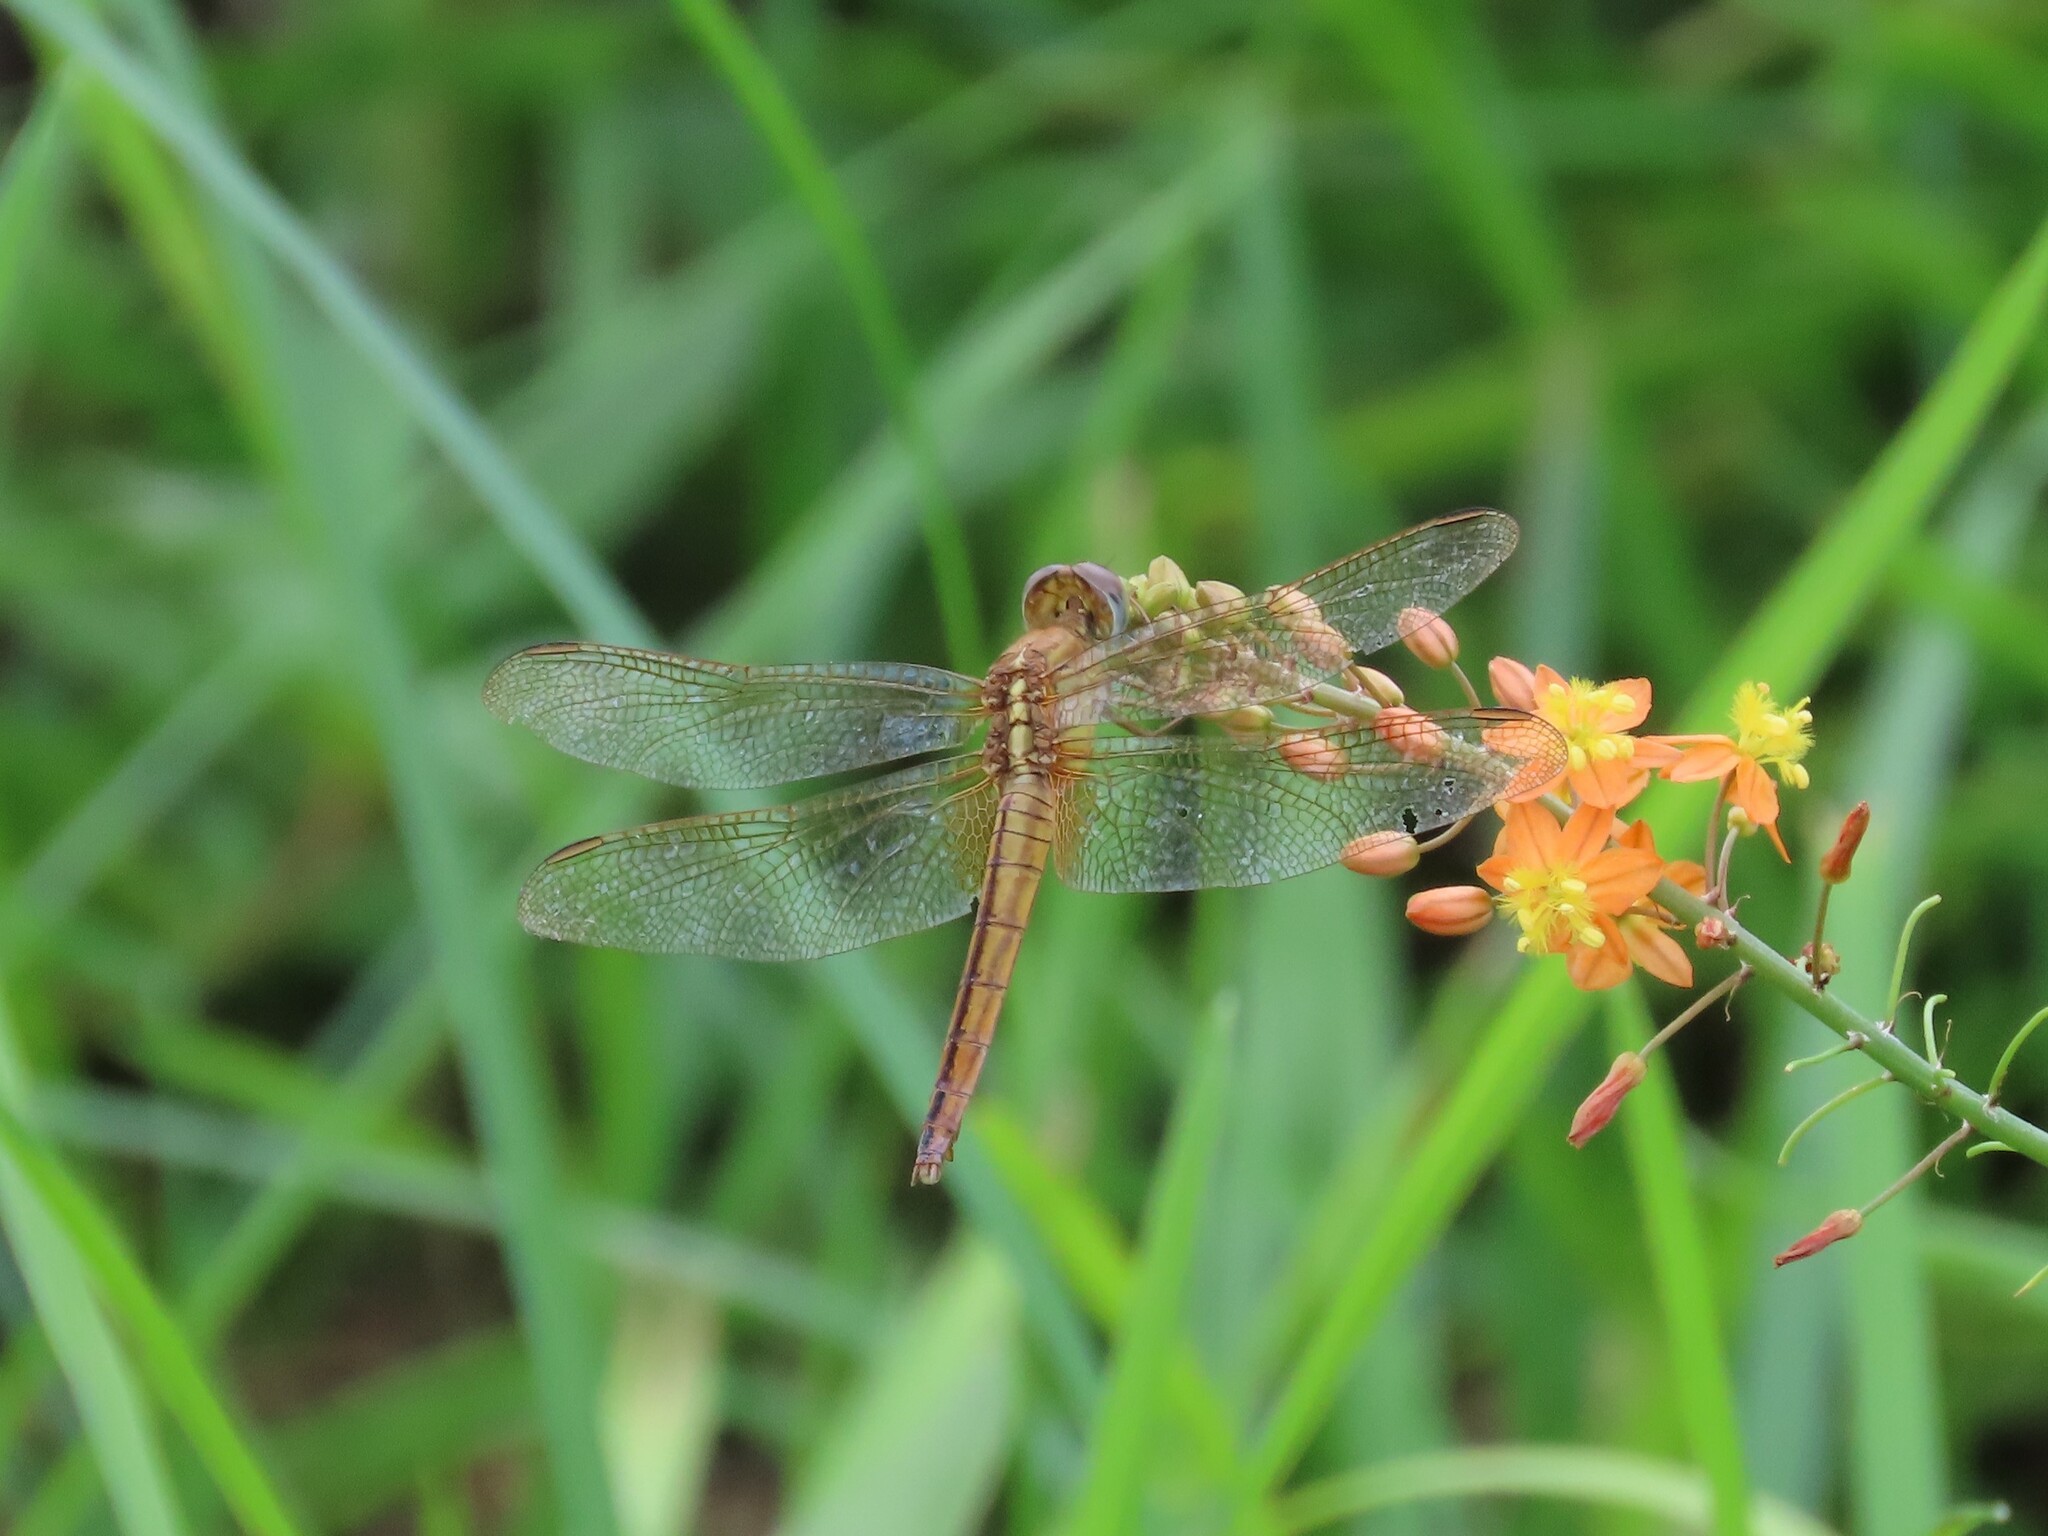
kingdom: Animalia
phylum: Arthropoda
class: Insecta
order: Odonata
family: Libellulidae
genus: Crocothemis
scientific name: Crocothemis servilia
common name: Scarlet skimmer
